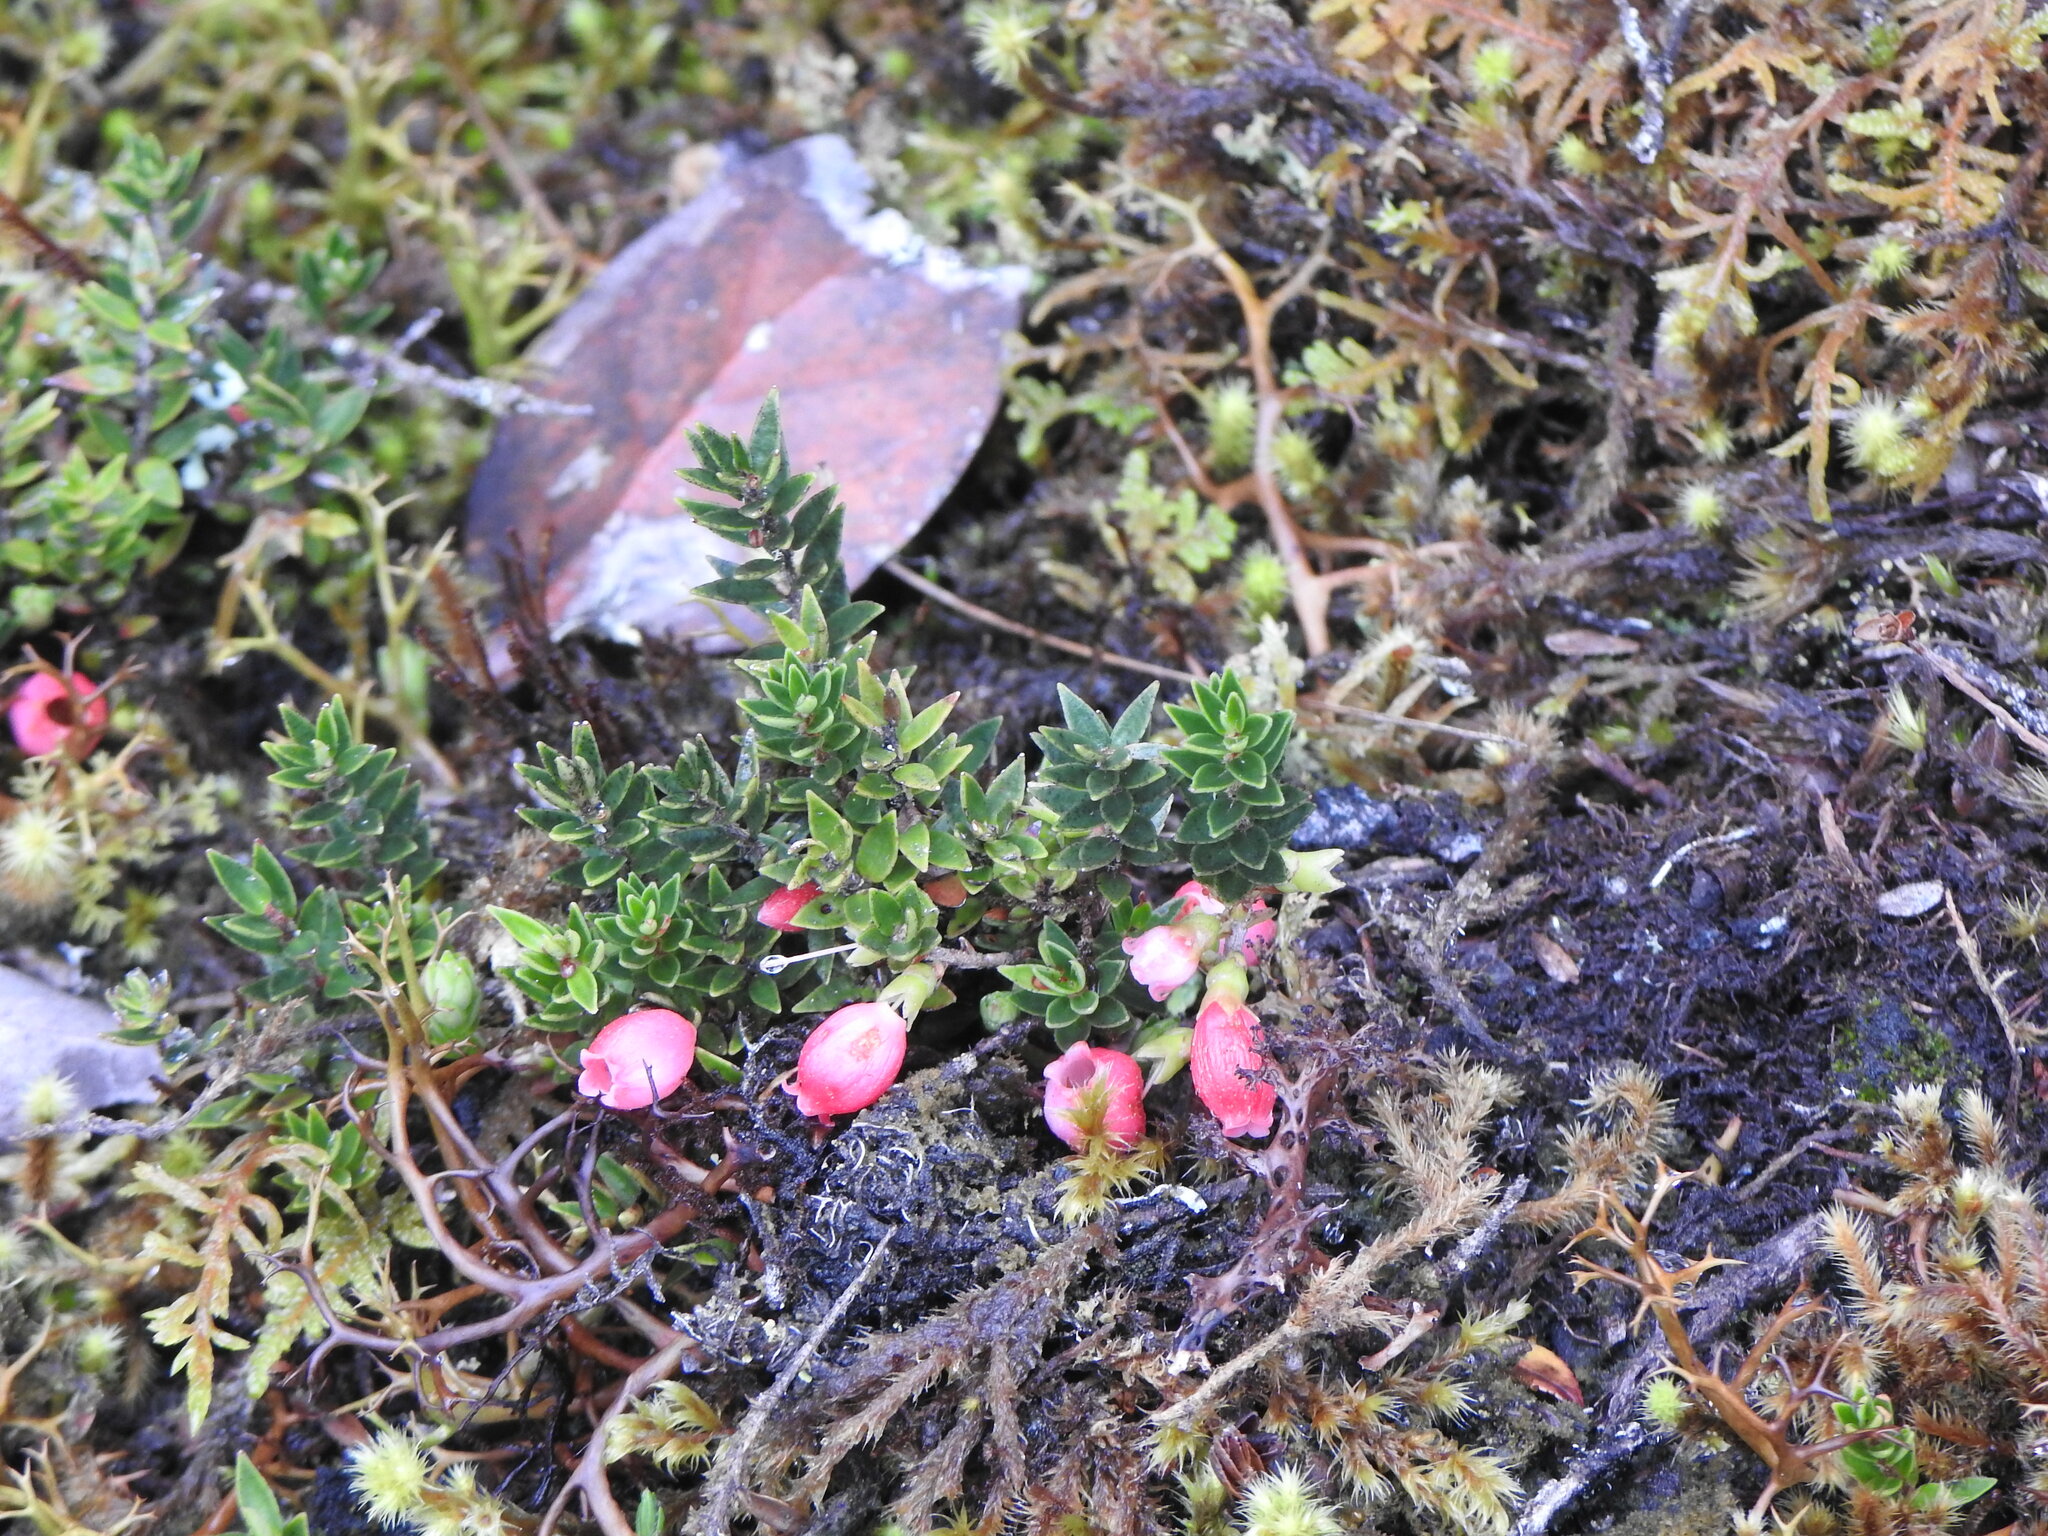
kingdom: Plantae
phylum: Tracheophyta
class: Magnoliopsida
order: Ericales
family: Ericaceae
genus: Disterigma
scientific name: Disterigma empetrifolium
